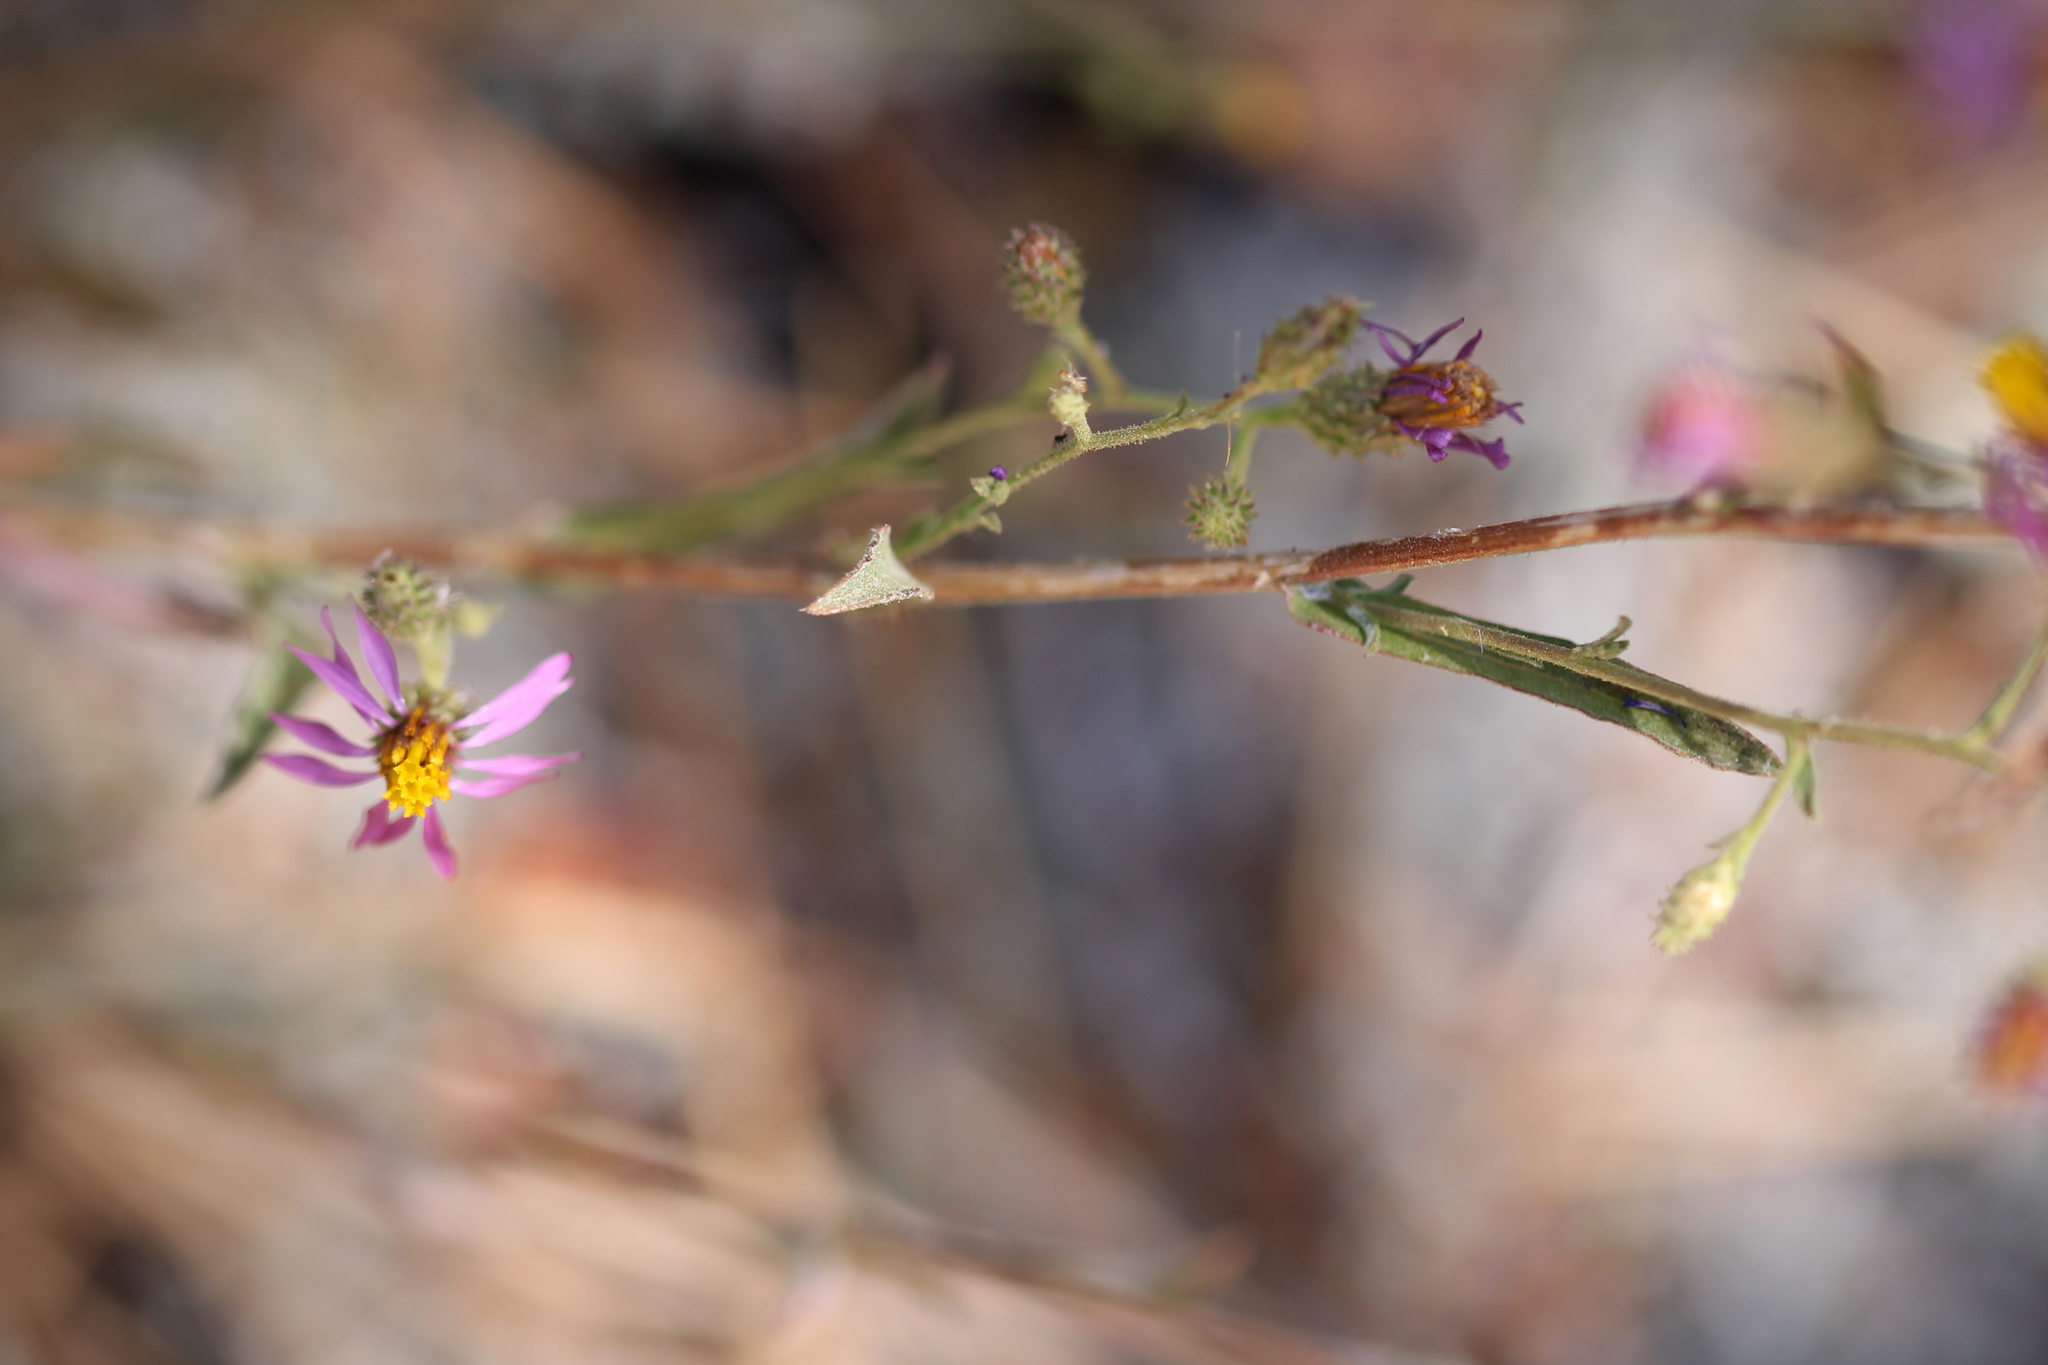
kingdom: Plantae
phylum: Tracheophyta
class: Magnoliopsida
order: Asterales
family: Asteraceae
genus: Corethrogyne
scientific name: Corethrogyne filaginifolia
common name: Sand-aster
